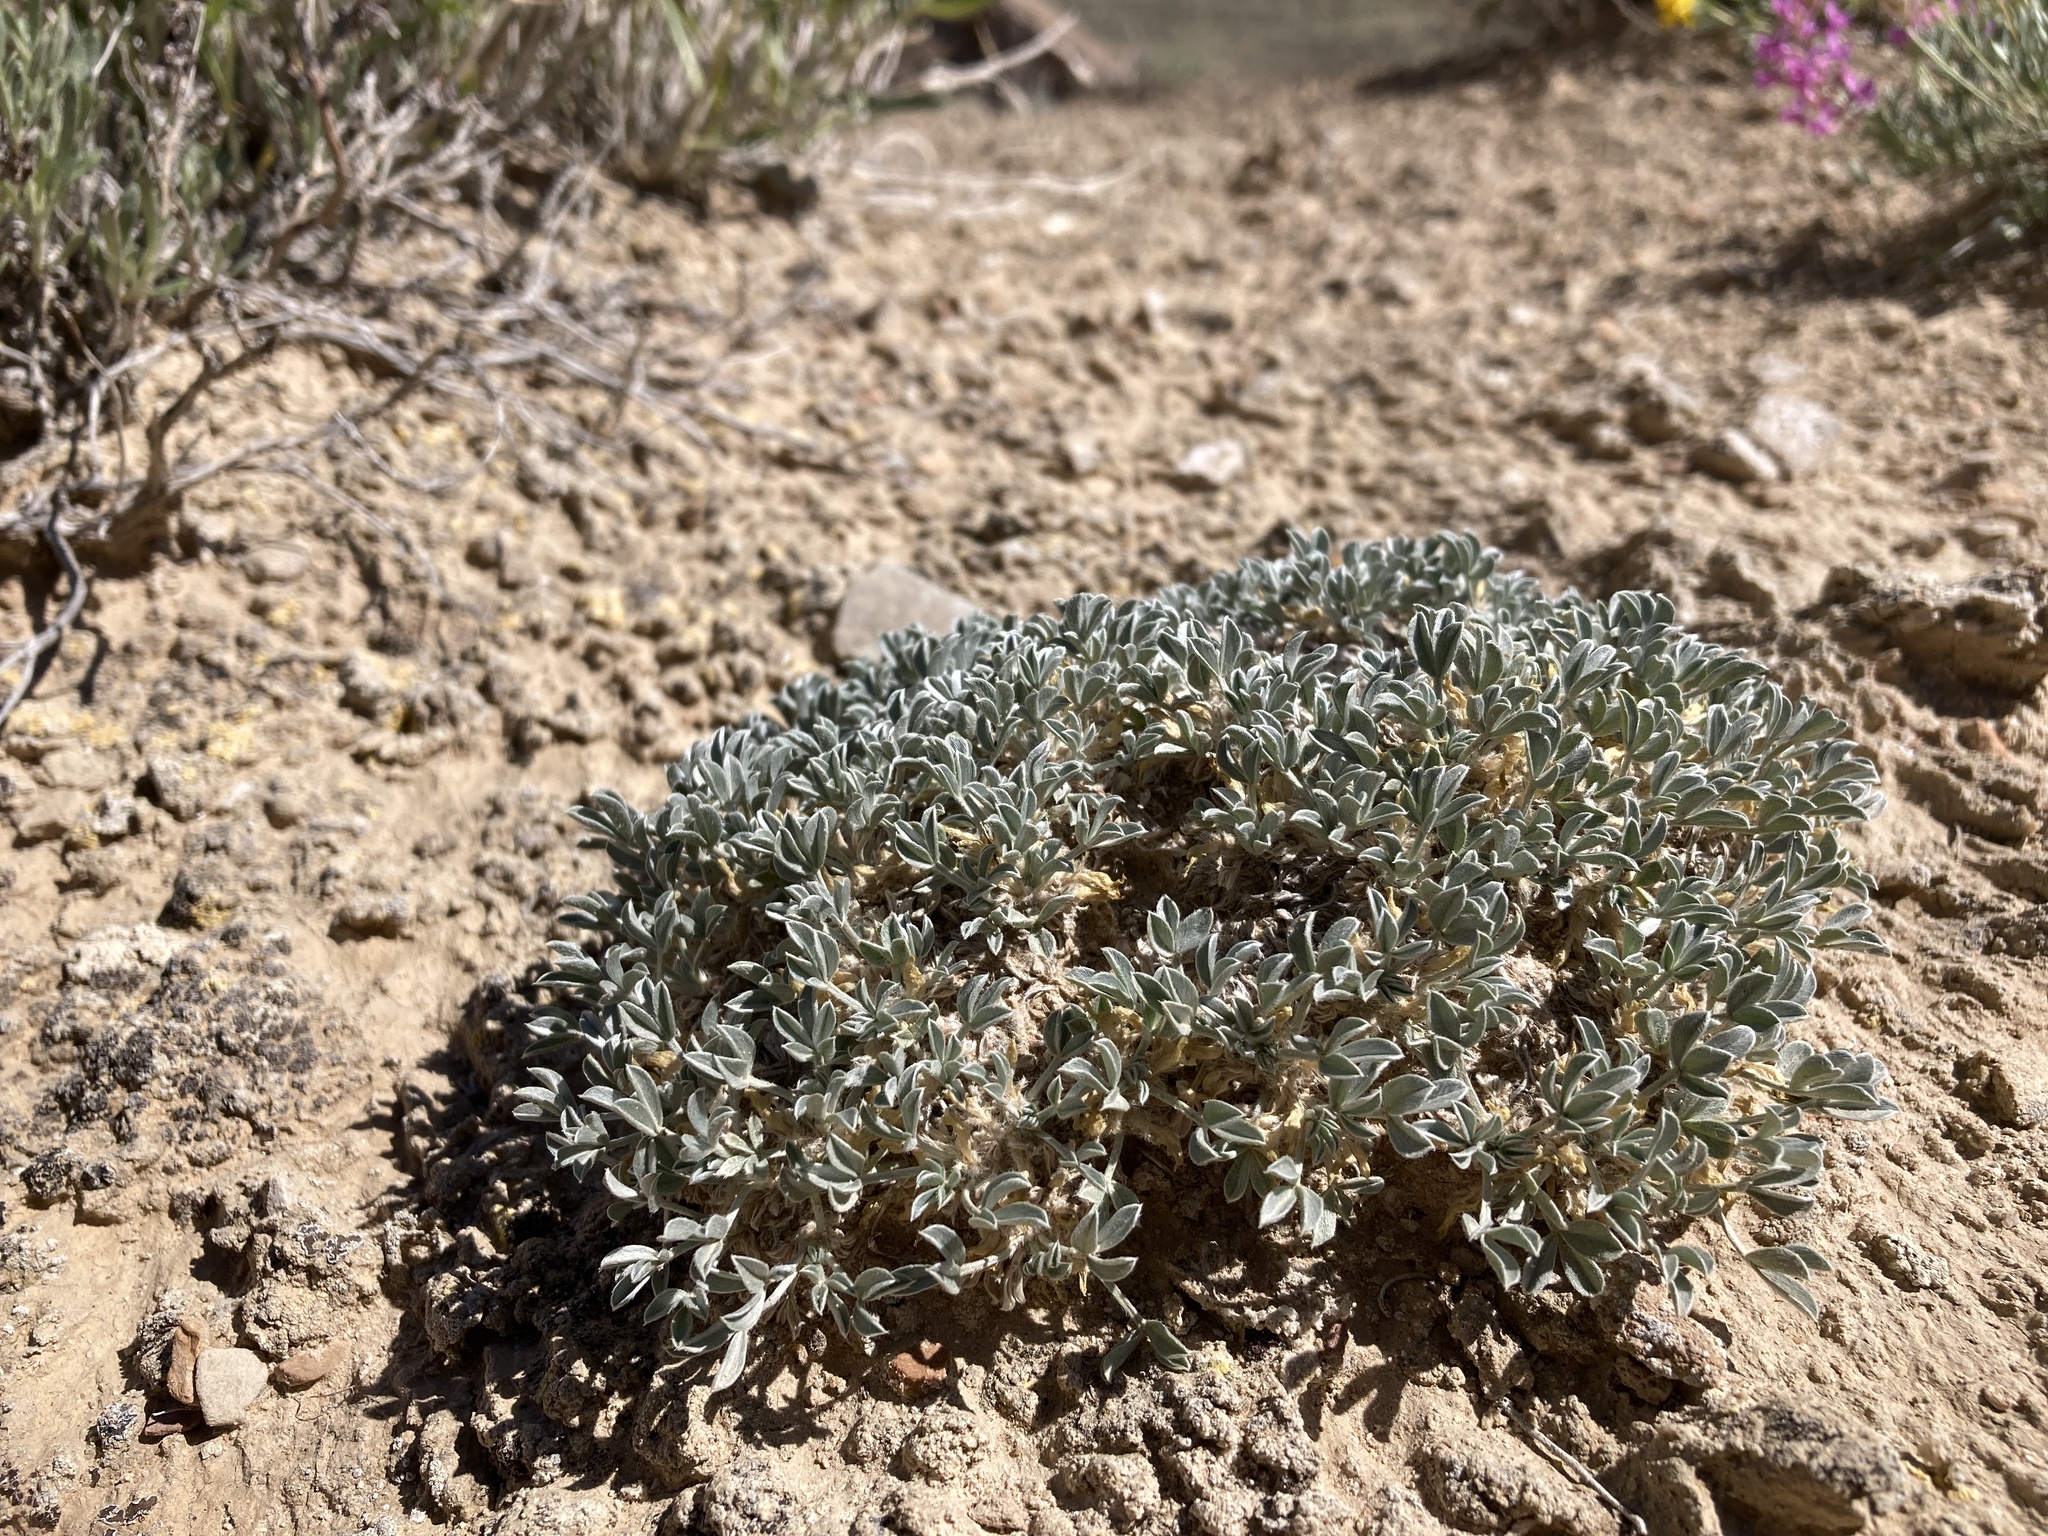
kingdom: Plantae
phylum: Tracheophyta
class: Magnoliopsida
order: Fabales
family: Fabaceae
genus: Astragalus
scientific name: Astragalus hyalinus
